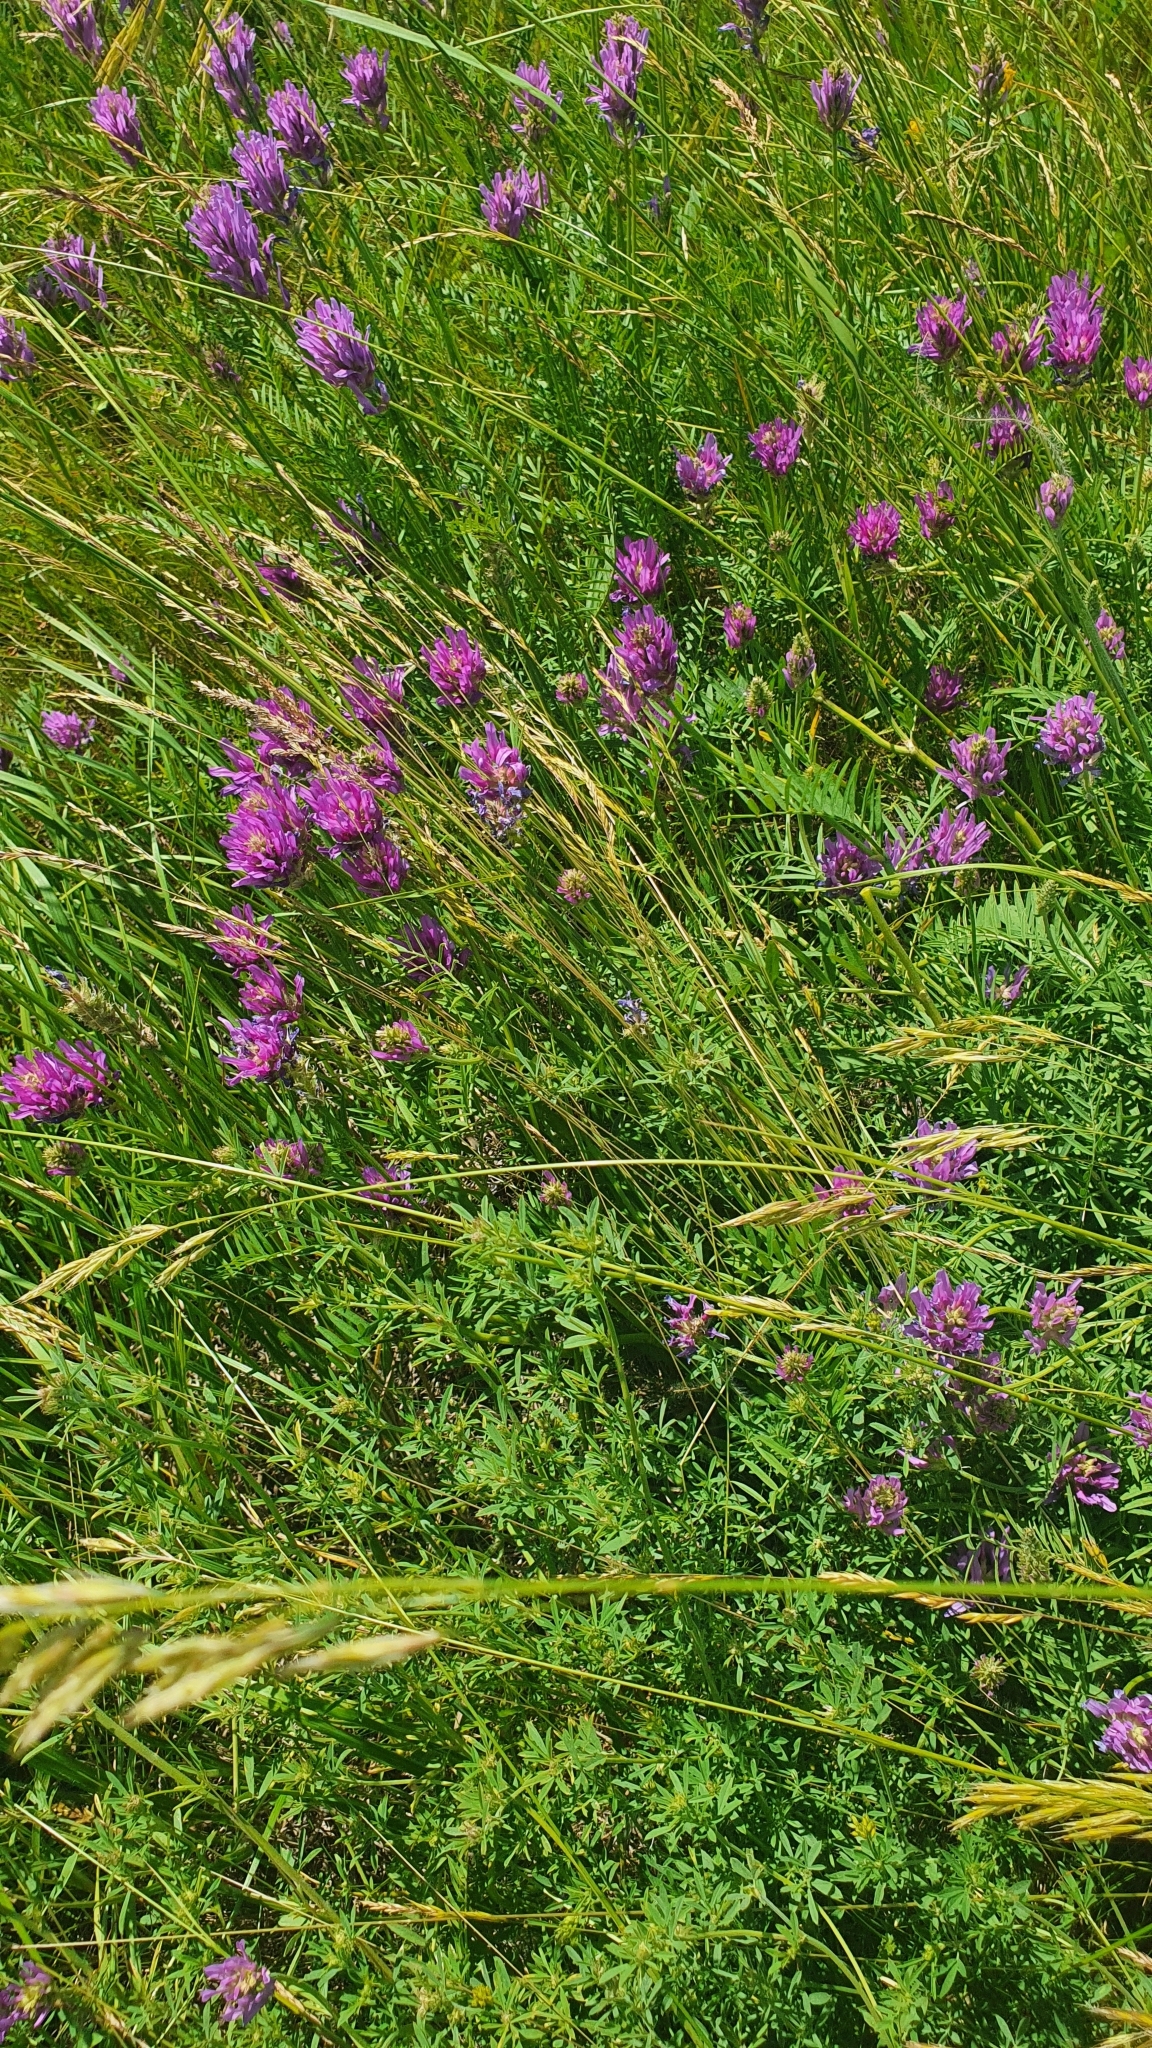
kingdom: Plantae
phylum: Tracheophyta
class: Magnoliopsida
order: Fabales
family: Fabaceae
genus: Astragalus
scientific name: Astragalus onobrychis
